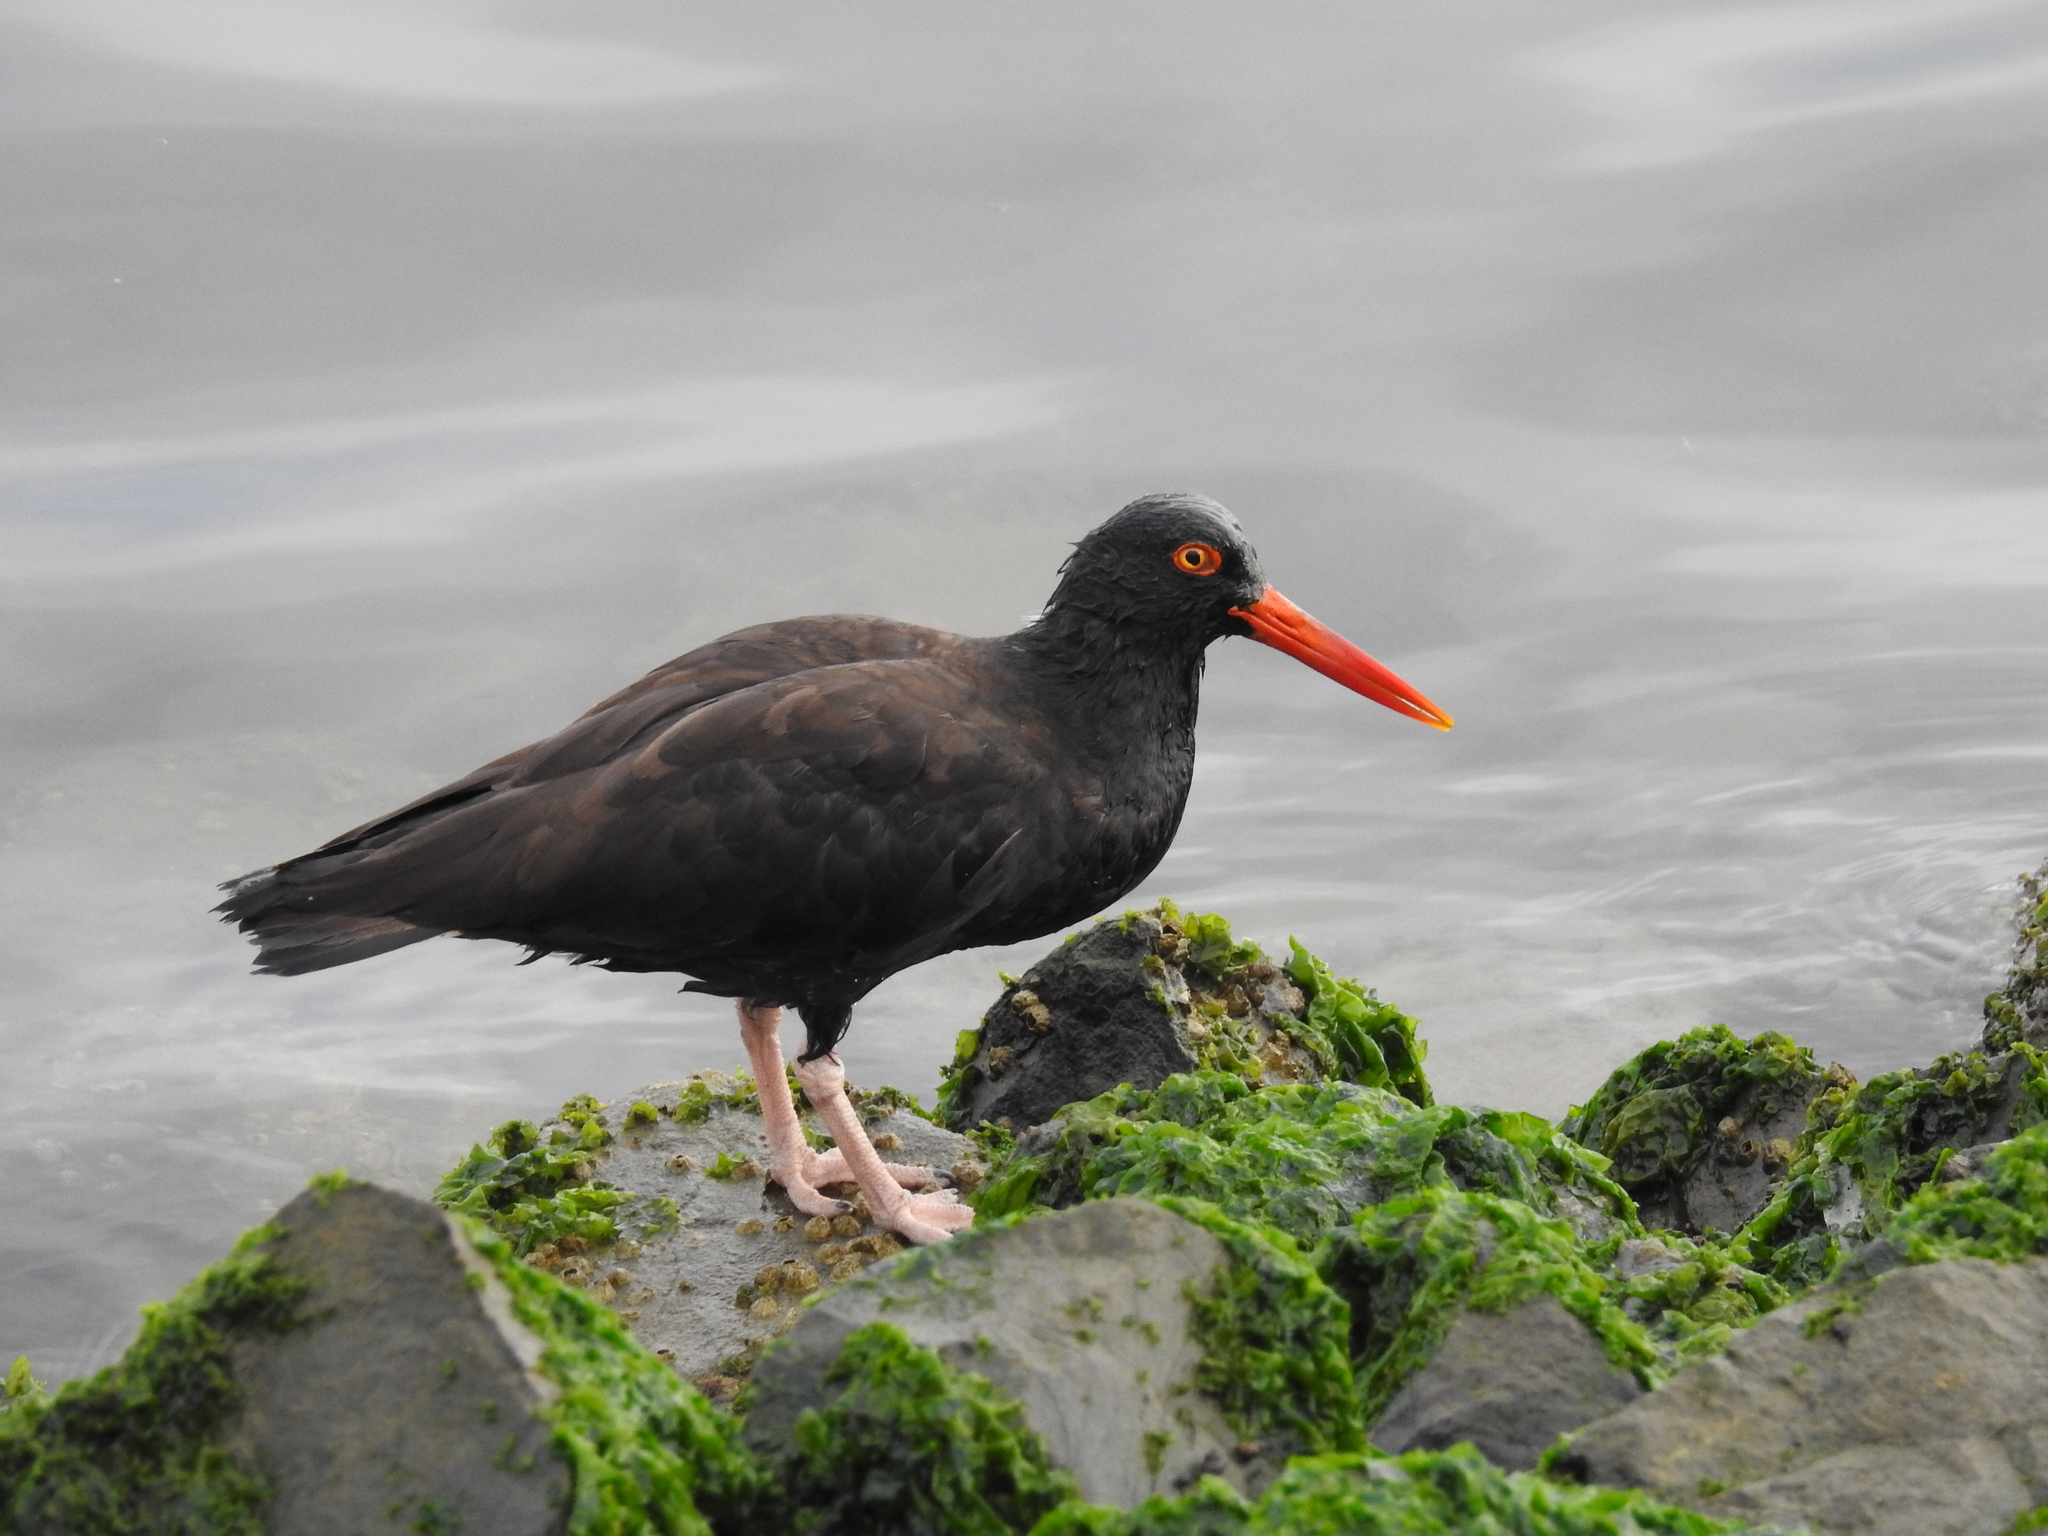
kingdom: Animalia
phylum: Chordata
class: Aves
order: Charadriiformes
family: Haematopodidae
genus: Haematopus
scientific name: Haematopus bachmani
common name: Black oystercatcher
